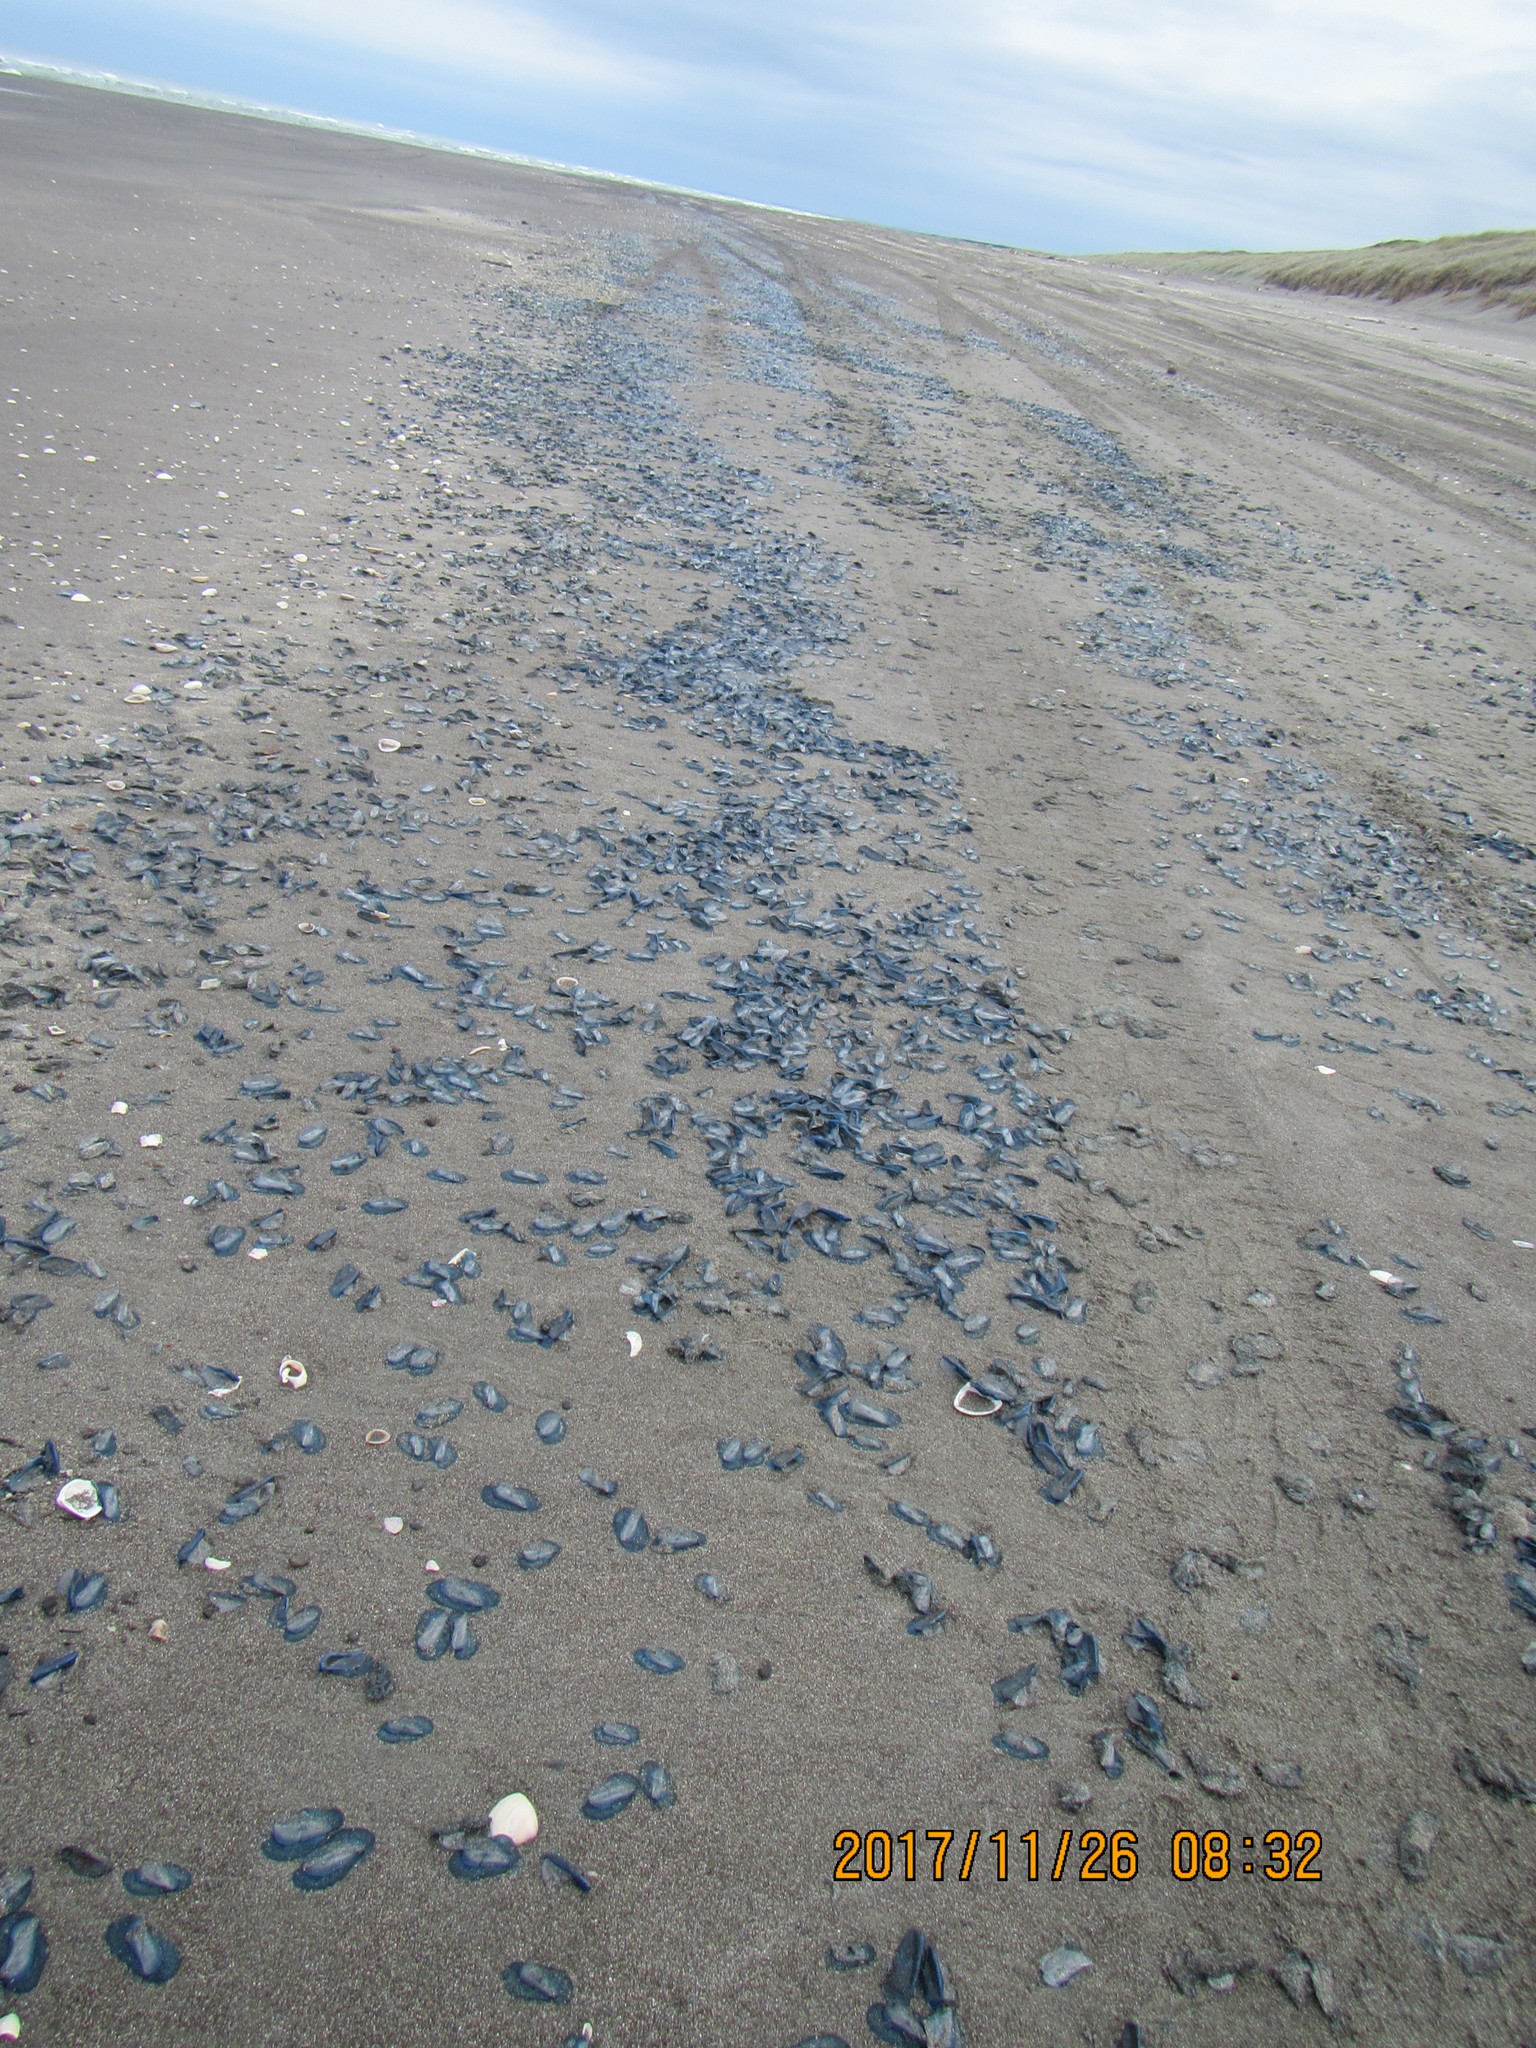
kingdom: Animalia
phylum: Cnidaria
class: Hydrozoa
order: Siphonophorae
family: Physaliidae
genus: Physalia
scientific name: Physalia physalis
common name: Portuguese man-of-war
